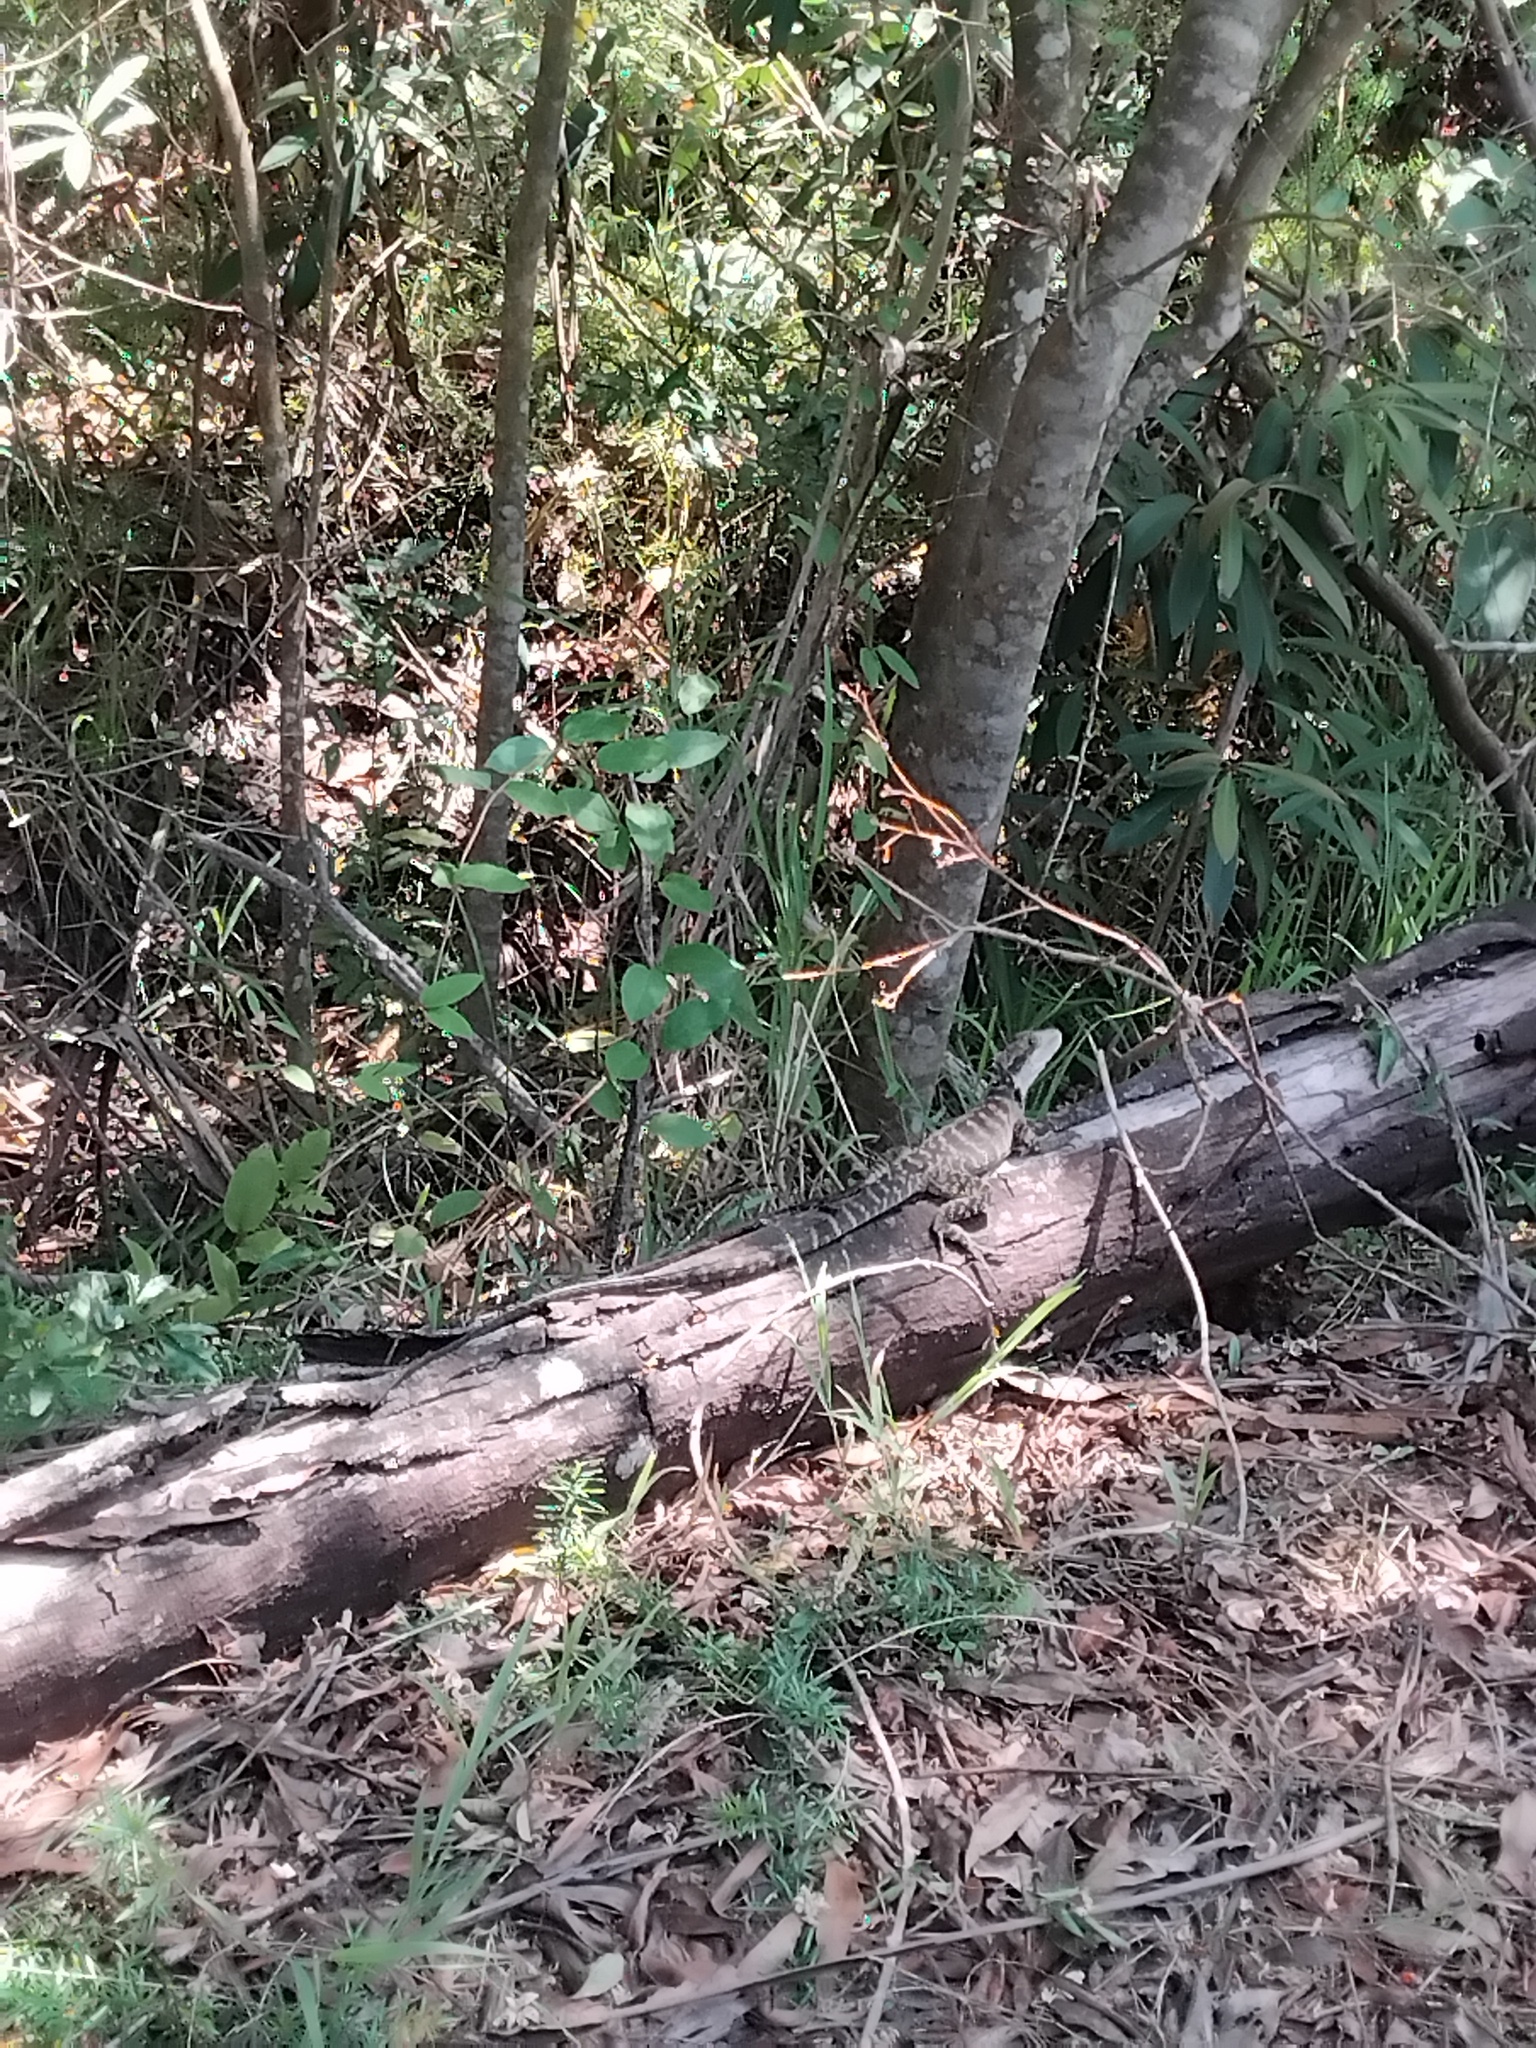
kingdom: Animalia
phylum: Chordata
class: Squamata
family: Agamidae
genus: Intellagama
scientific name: Intellagama lesueurii
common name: Eastern water dragon
